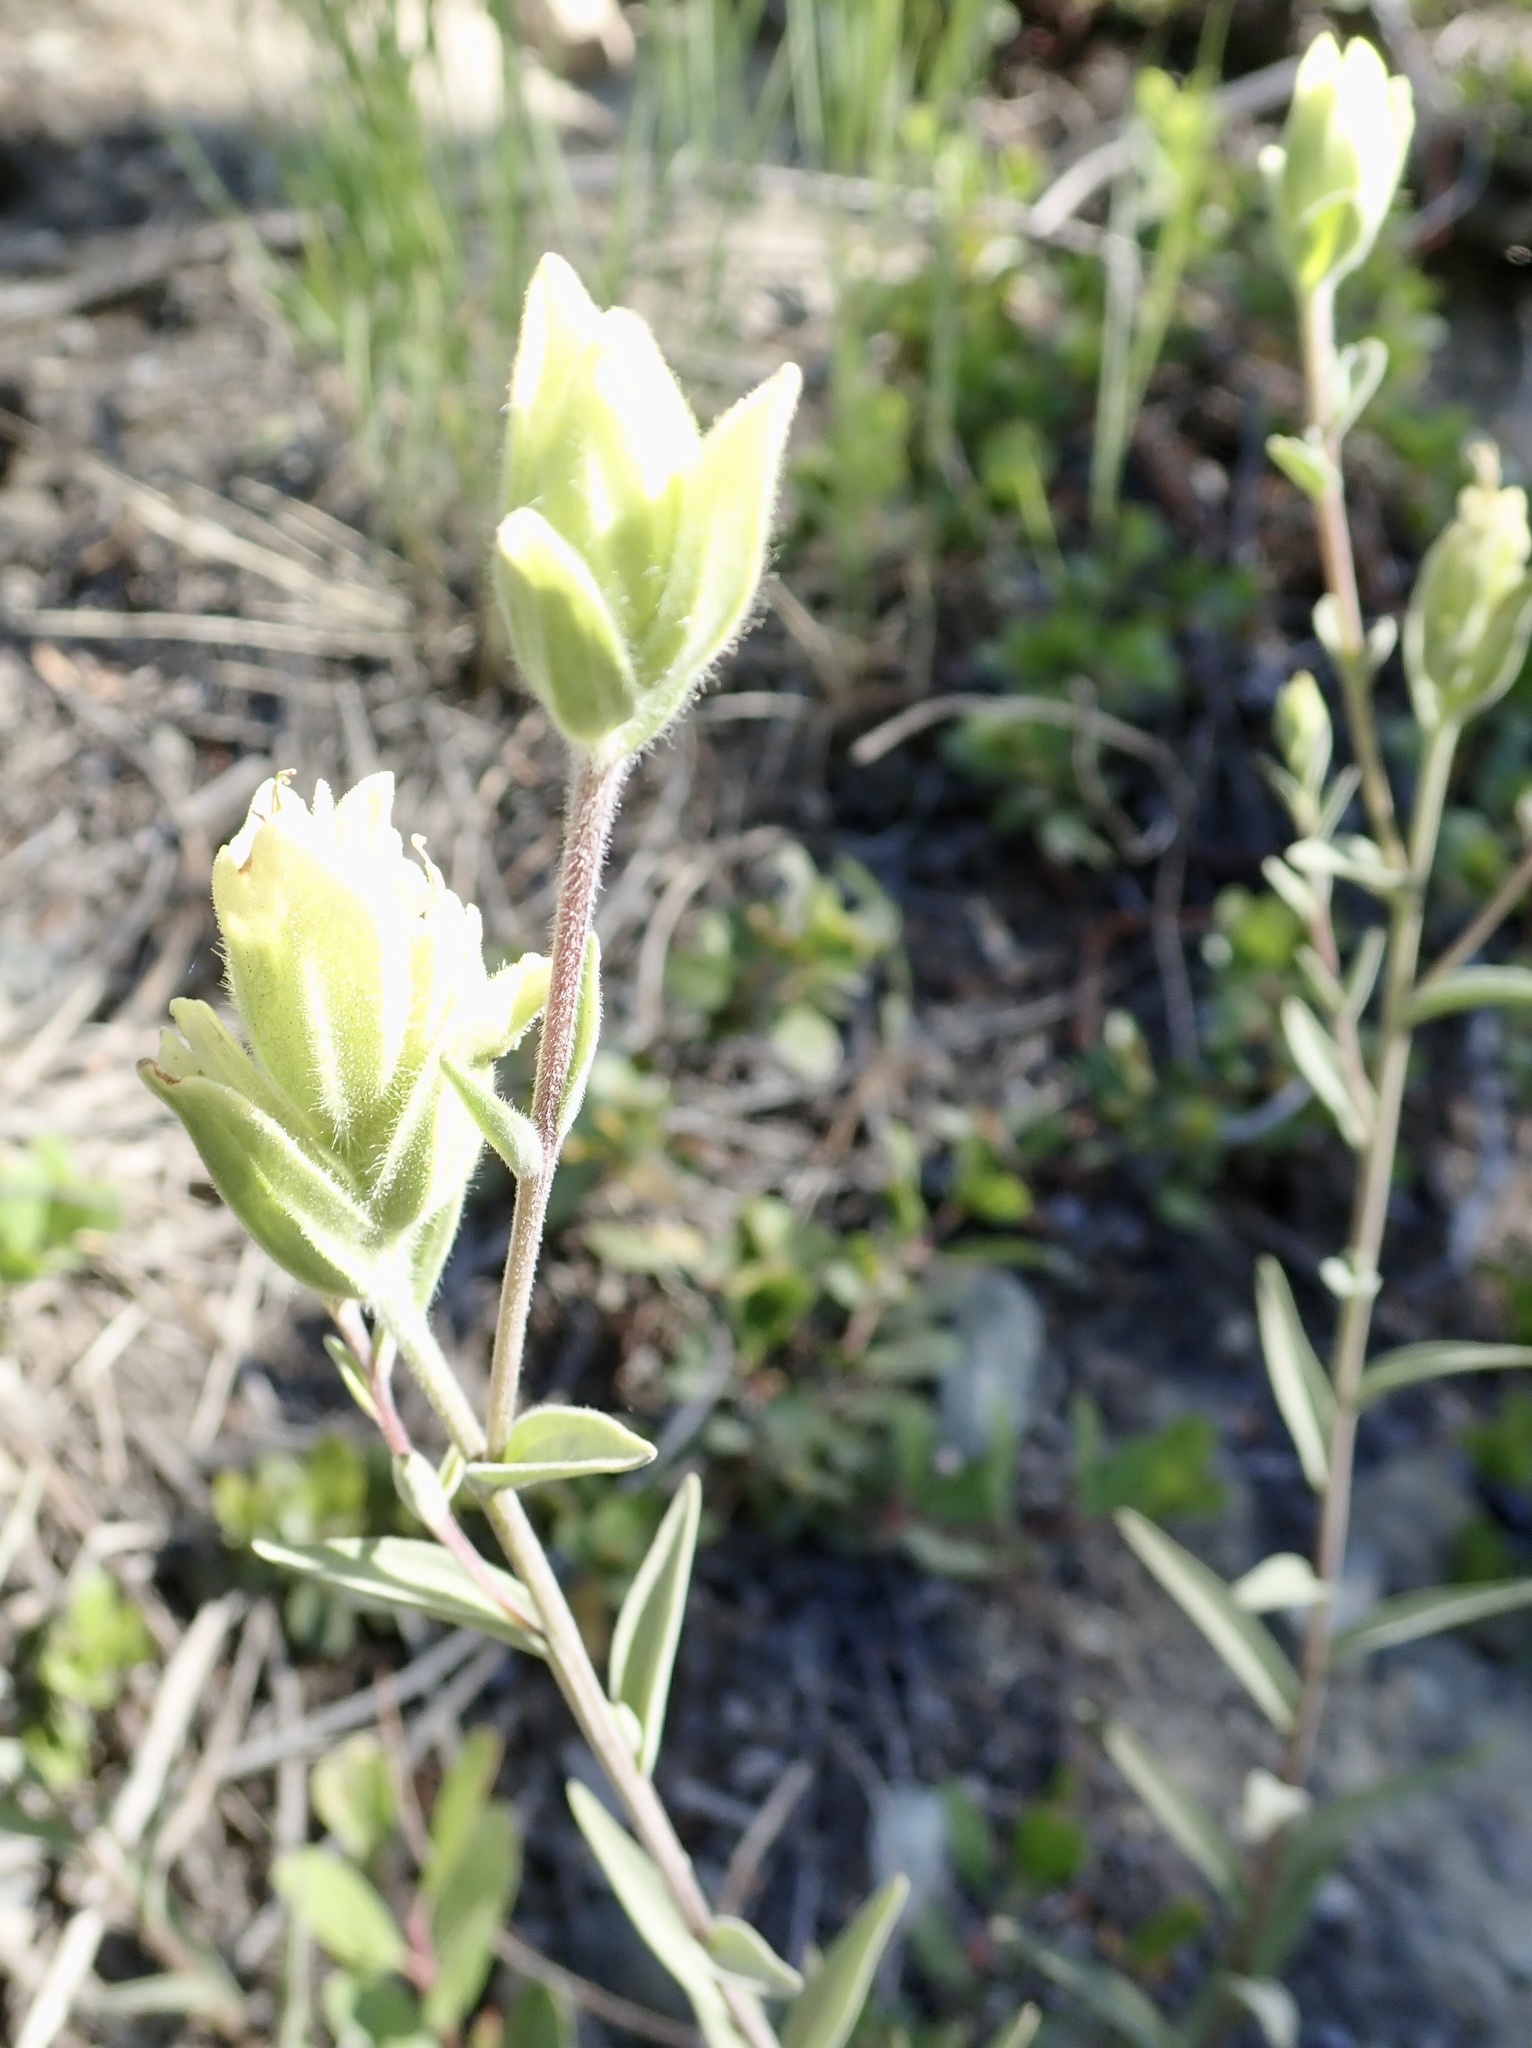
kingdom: Plantae
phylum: Tracheophyta
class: Magnoliopsida
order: Lamiales
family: Orobanchaceae
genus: Castilleja
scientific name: Castilleja elmeri
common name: Elmer's paintbrush
